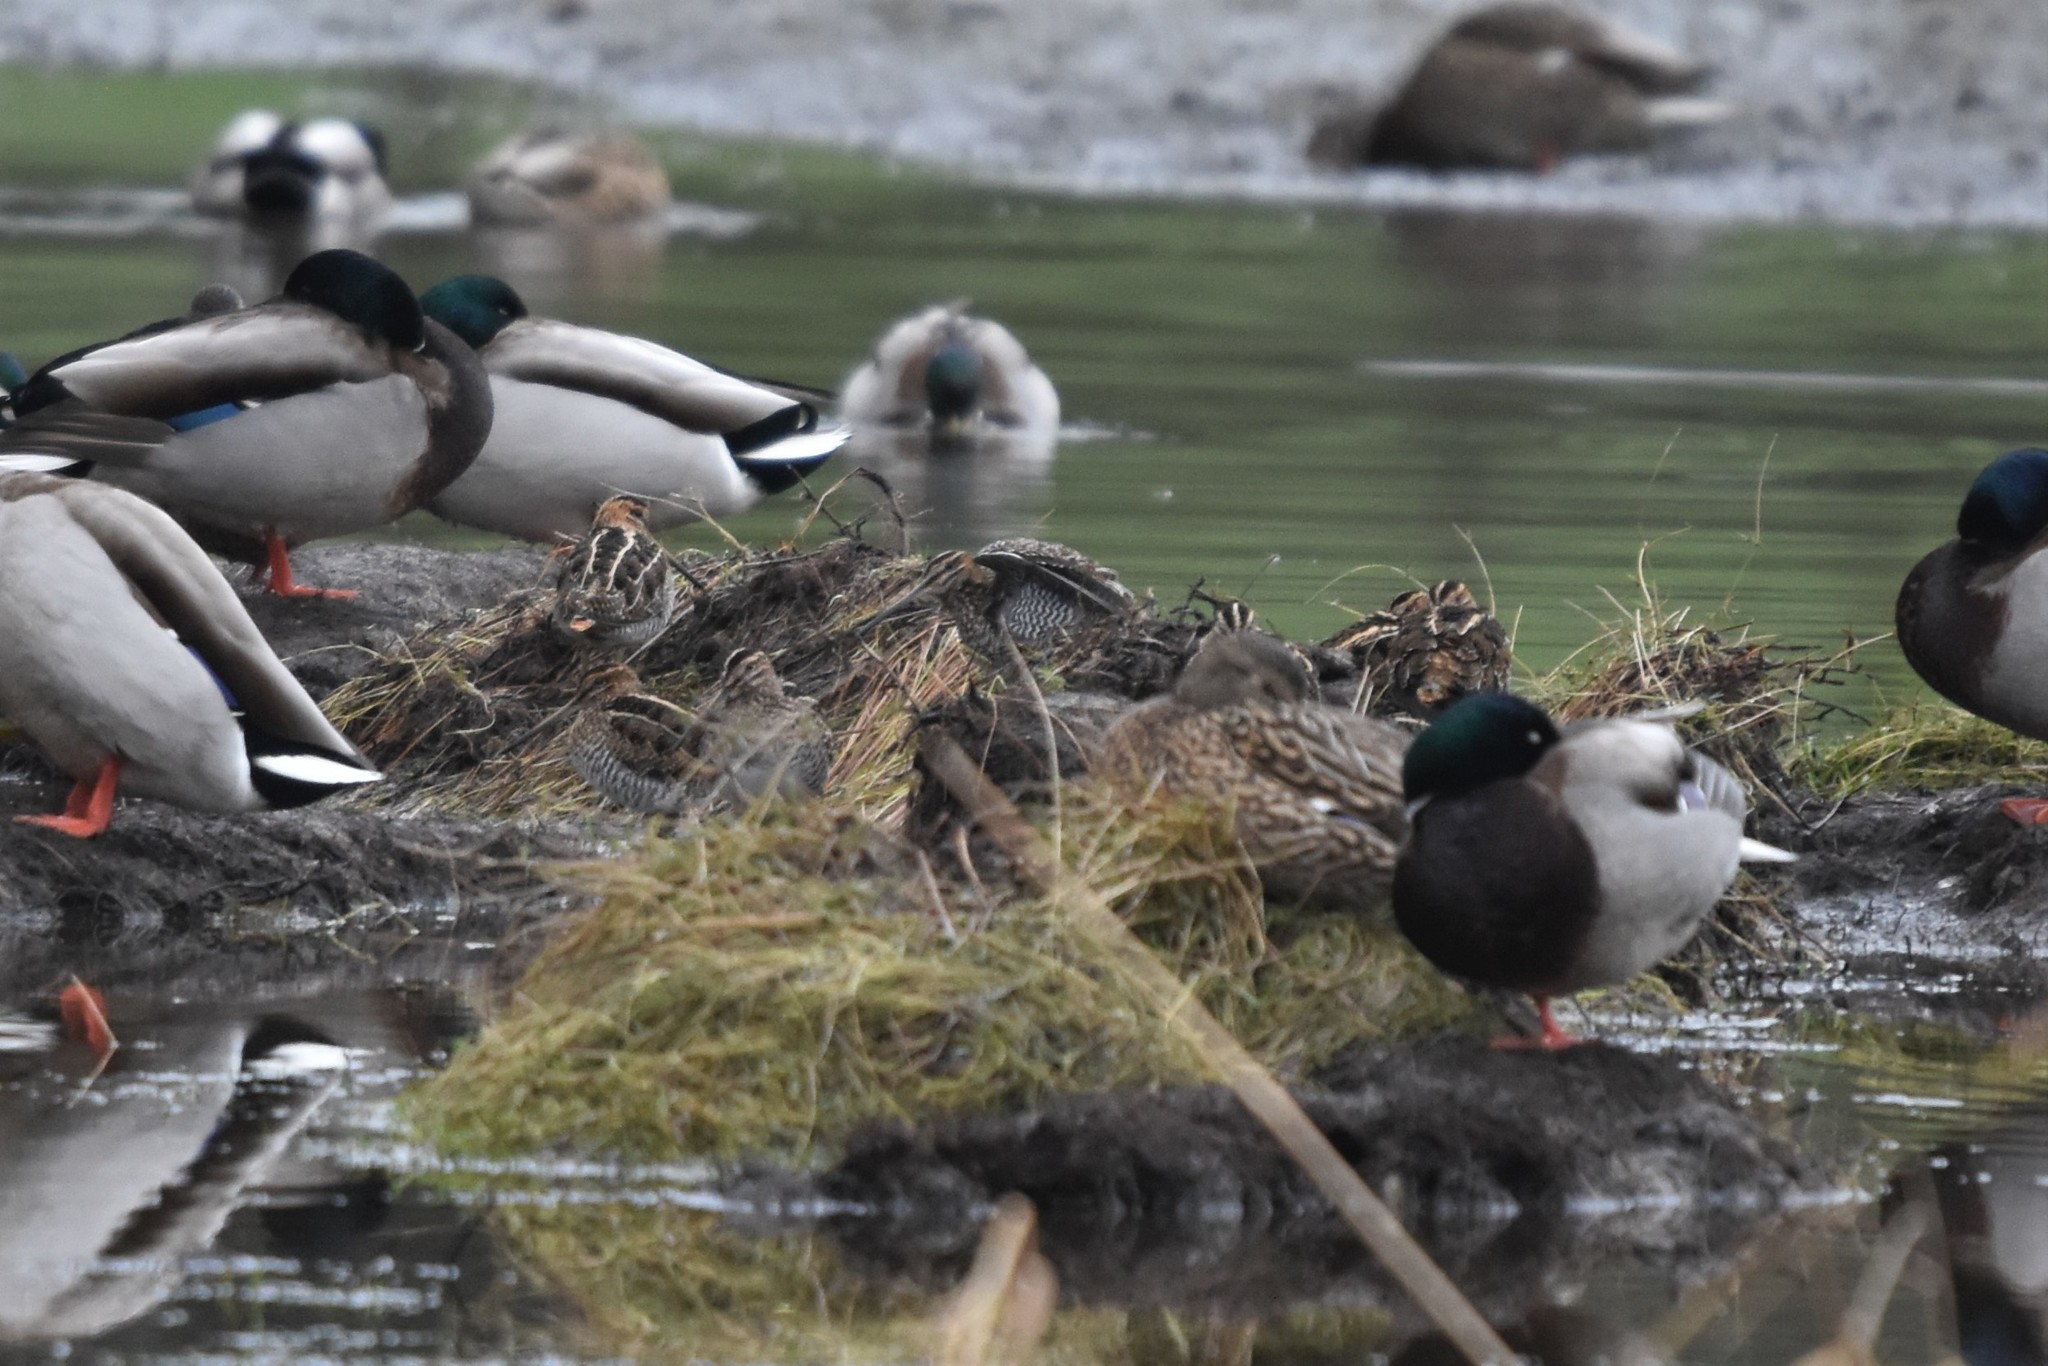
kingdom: Animalia
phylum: Chordata
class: Aves
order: Charadriiformes
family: Scolopacidae
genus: Gallinago
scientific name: Gallinago delicata
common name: Wilson's snipe
